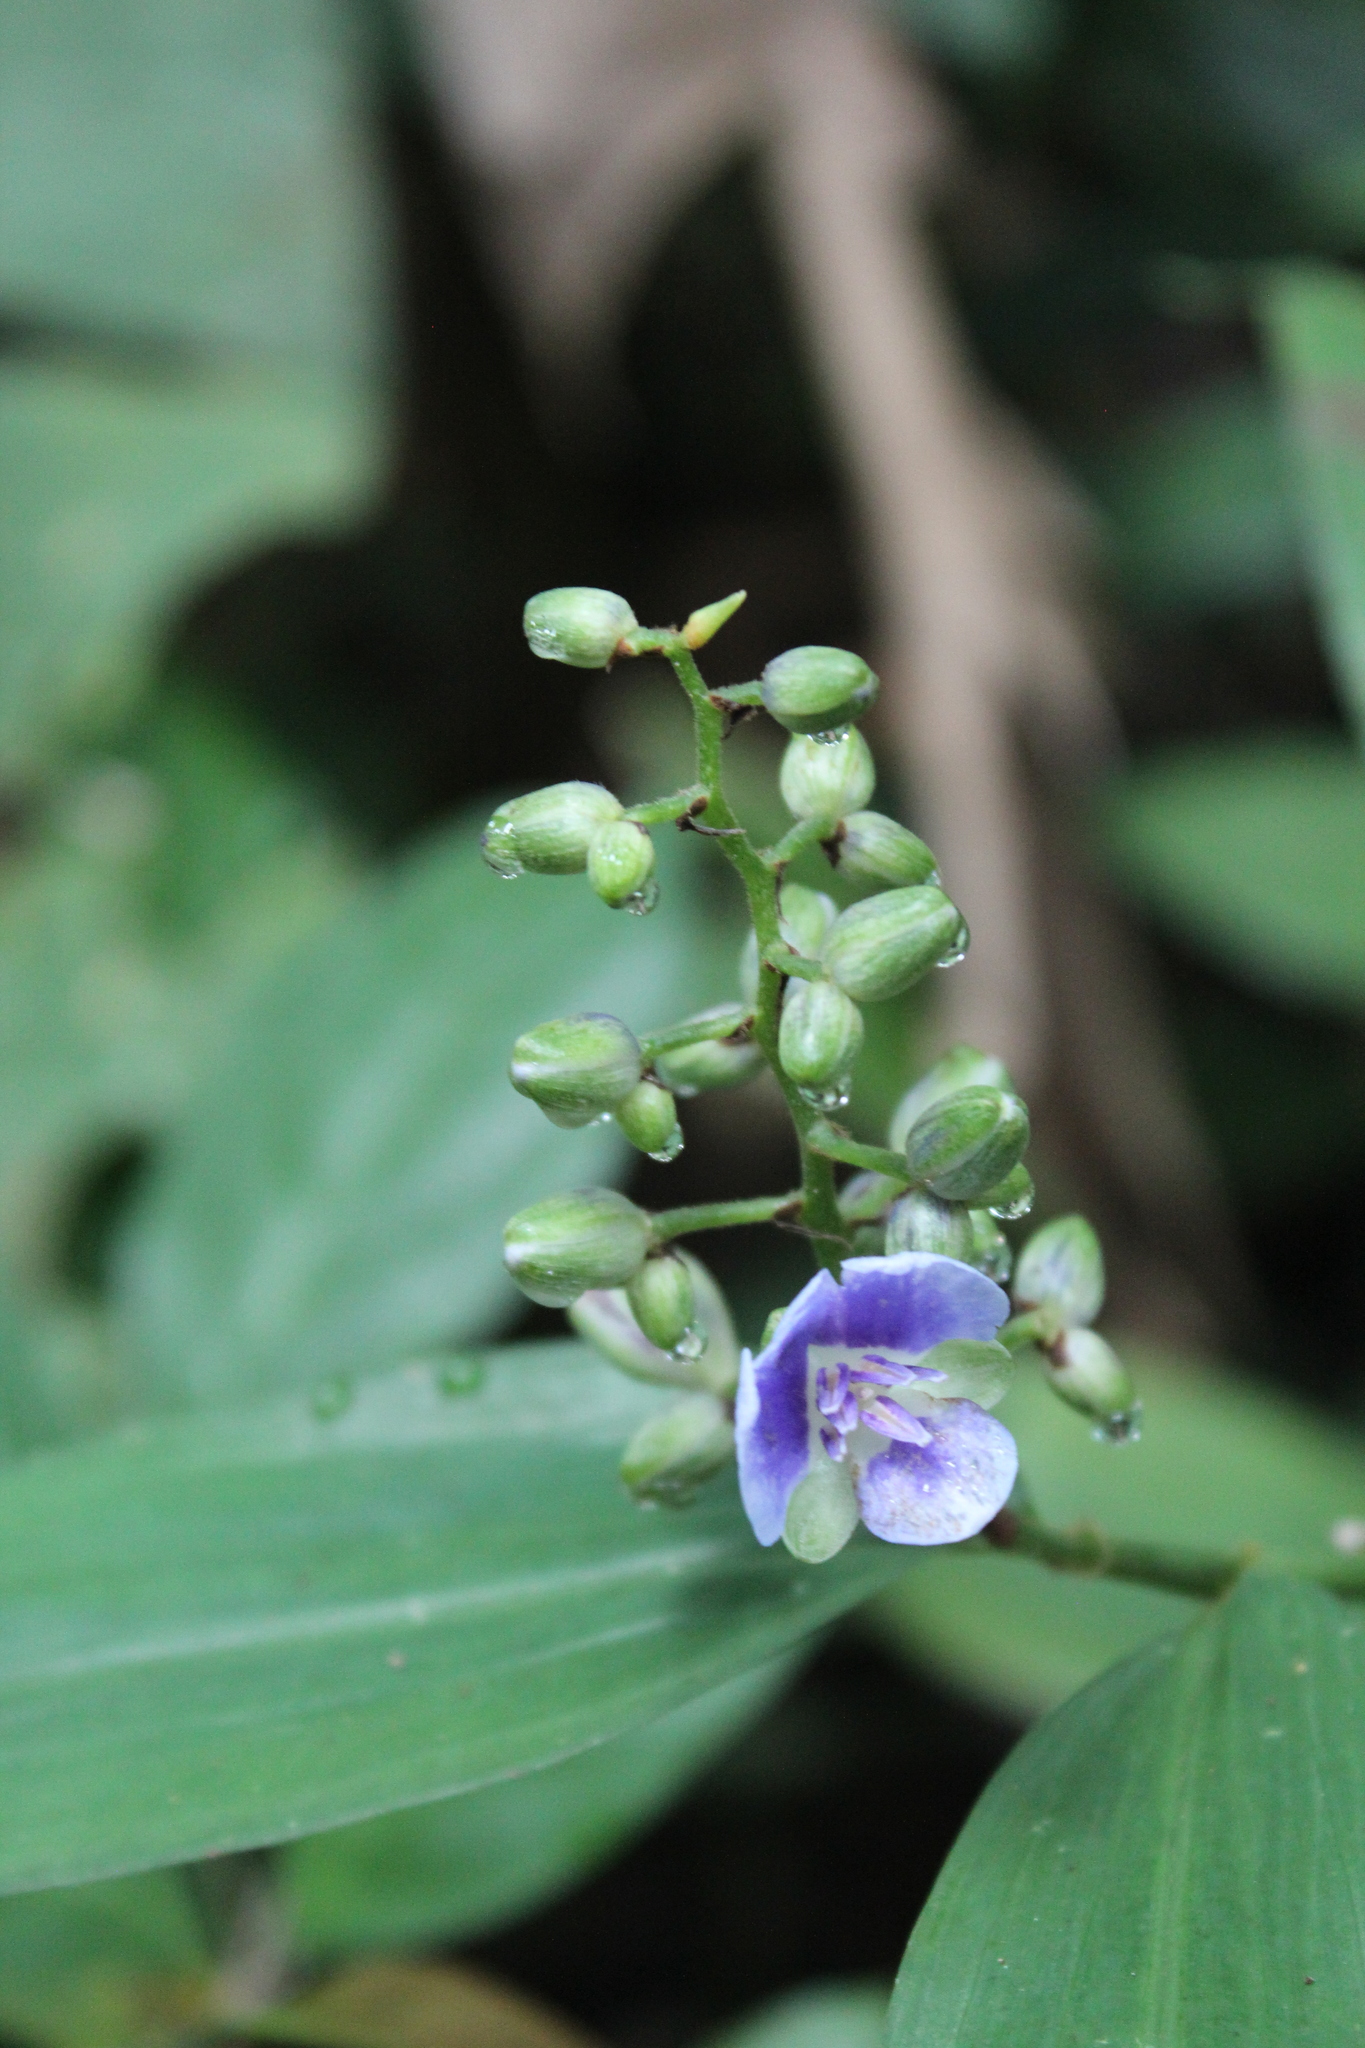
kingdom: Plantae
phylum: Tracheophyta
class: Liliopsida
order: Commelinales
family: Commelinaceae
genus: Dichorisandra
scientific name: Dichorisandra ulei
